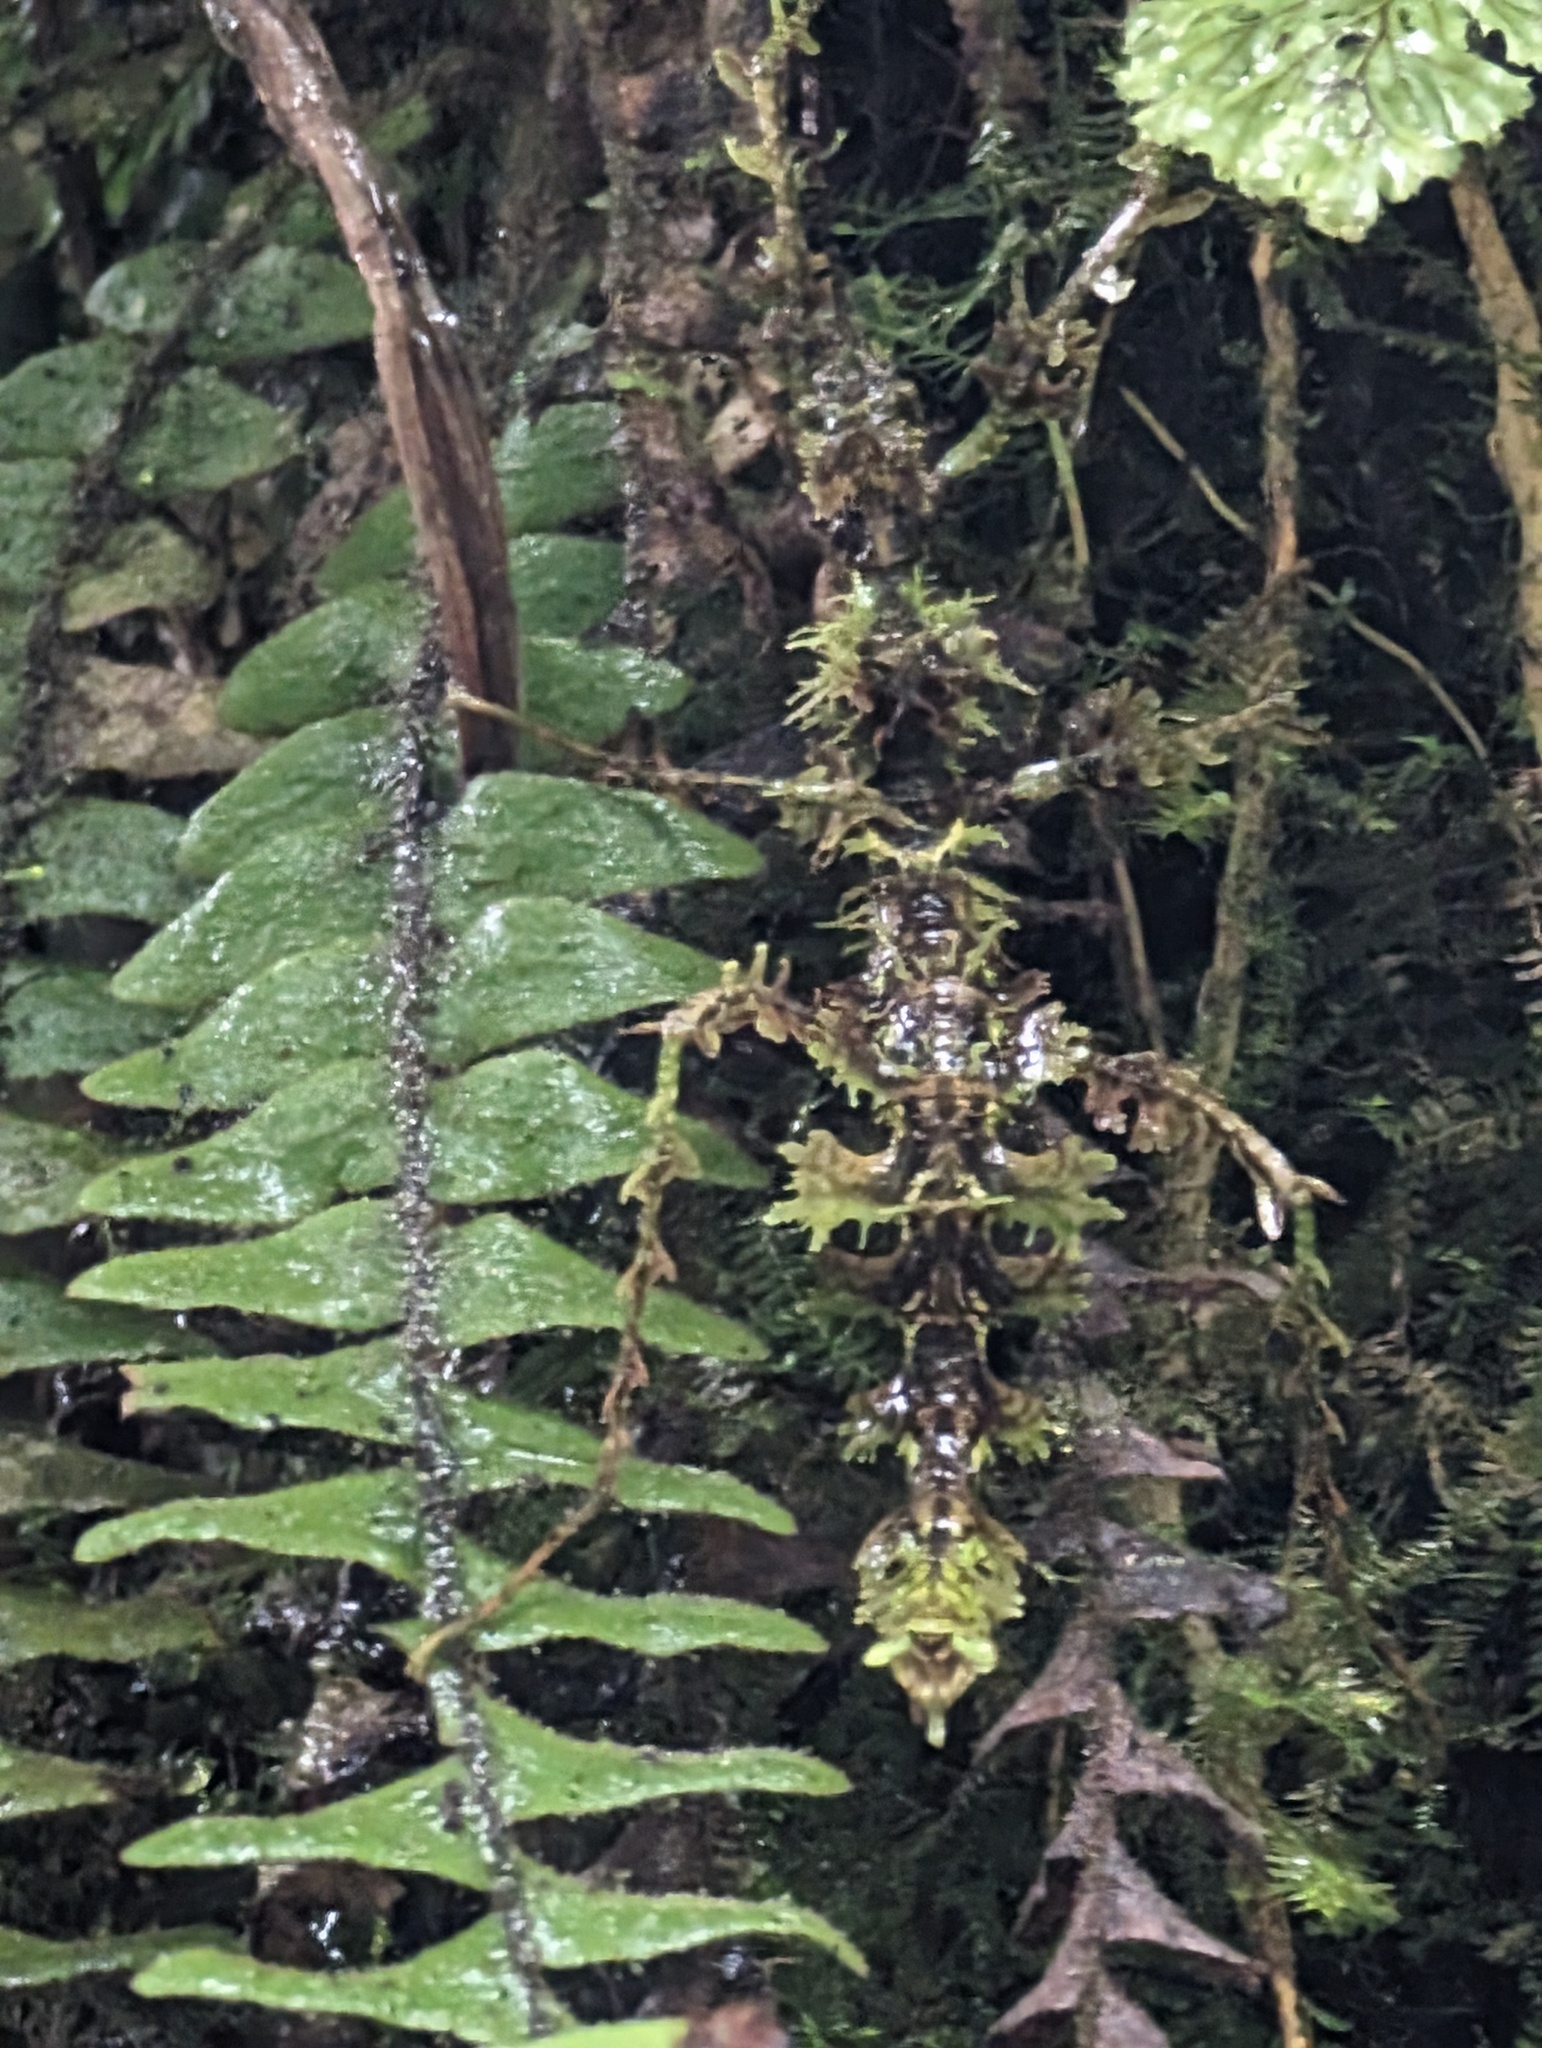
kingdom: Animalia
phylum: Arthropoda
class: Insecta
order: Phasmida
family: Diapheromeridae
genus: Trychopeplus
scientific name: Trychopeplus laciniatus
